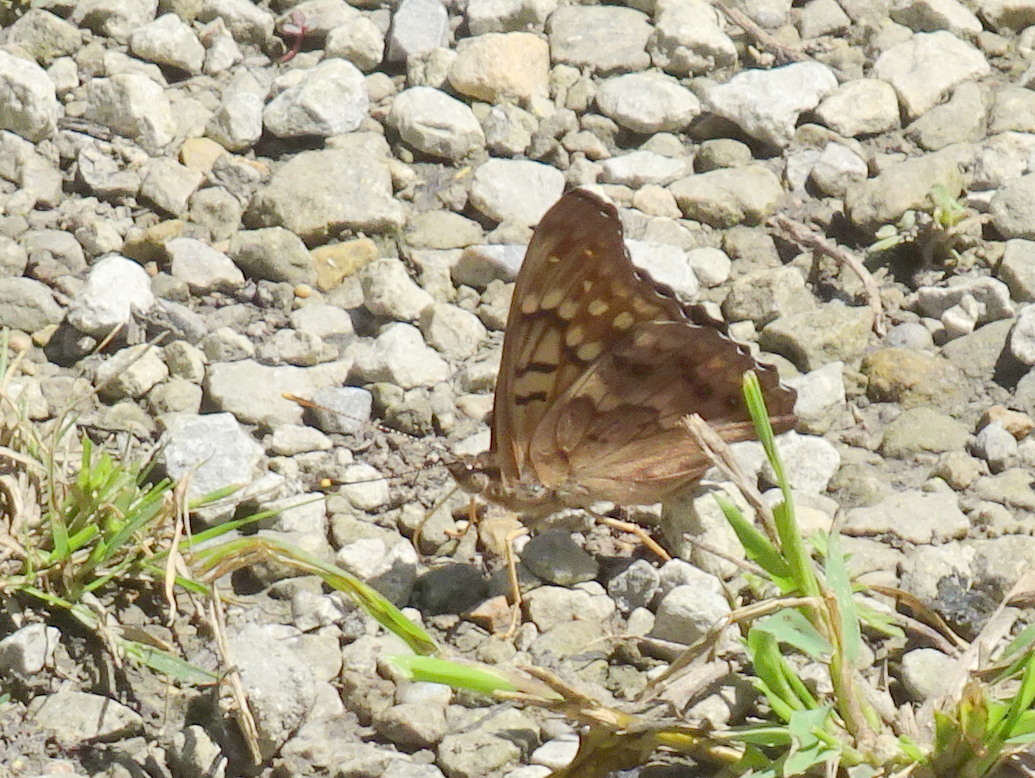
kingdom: Animalia
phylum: Arthropoda
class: Insecta
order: Lepidoptera
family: Nymphalidae
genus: Asterocampa
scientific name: Asterocampa clyton
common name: Tawny emperor
